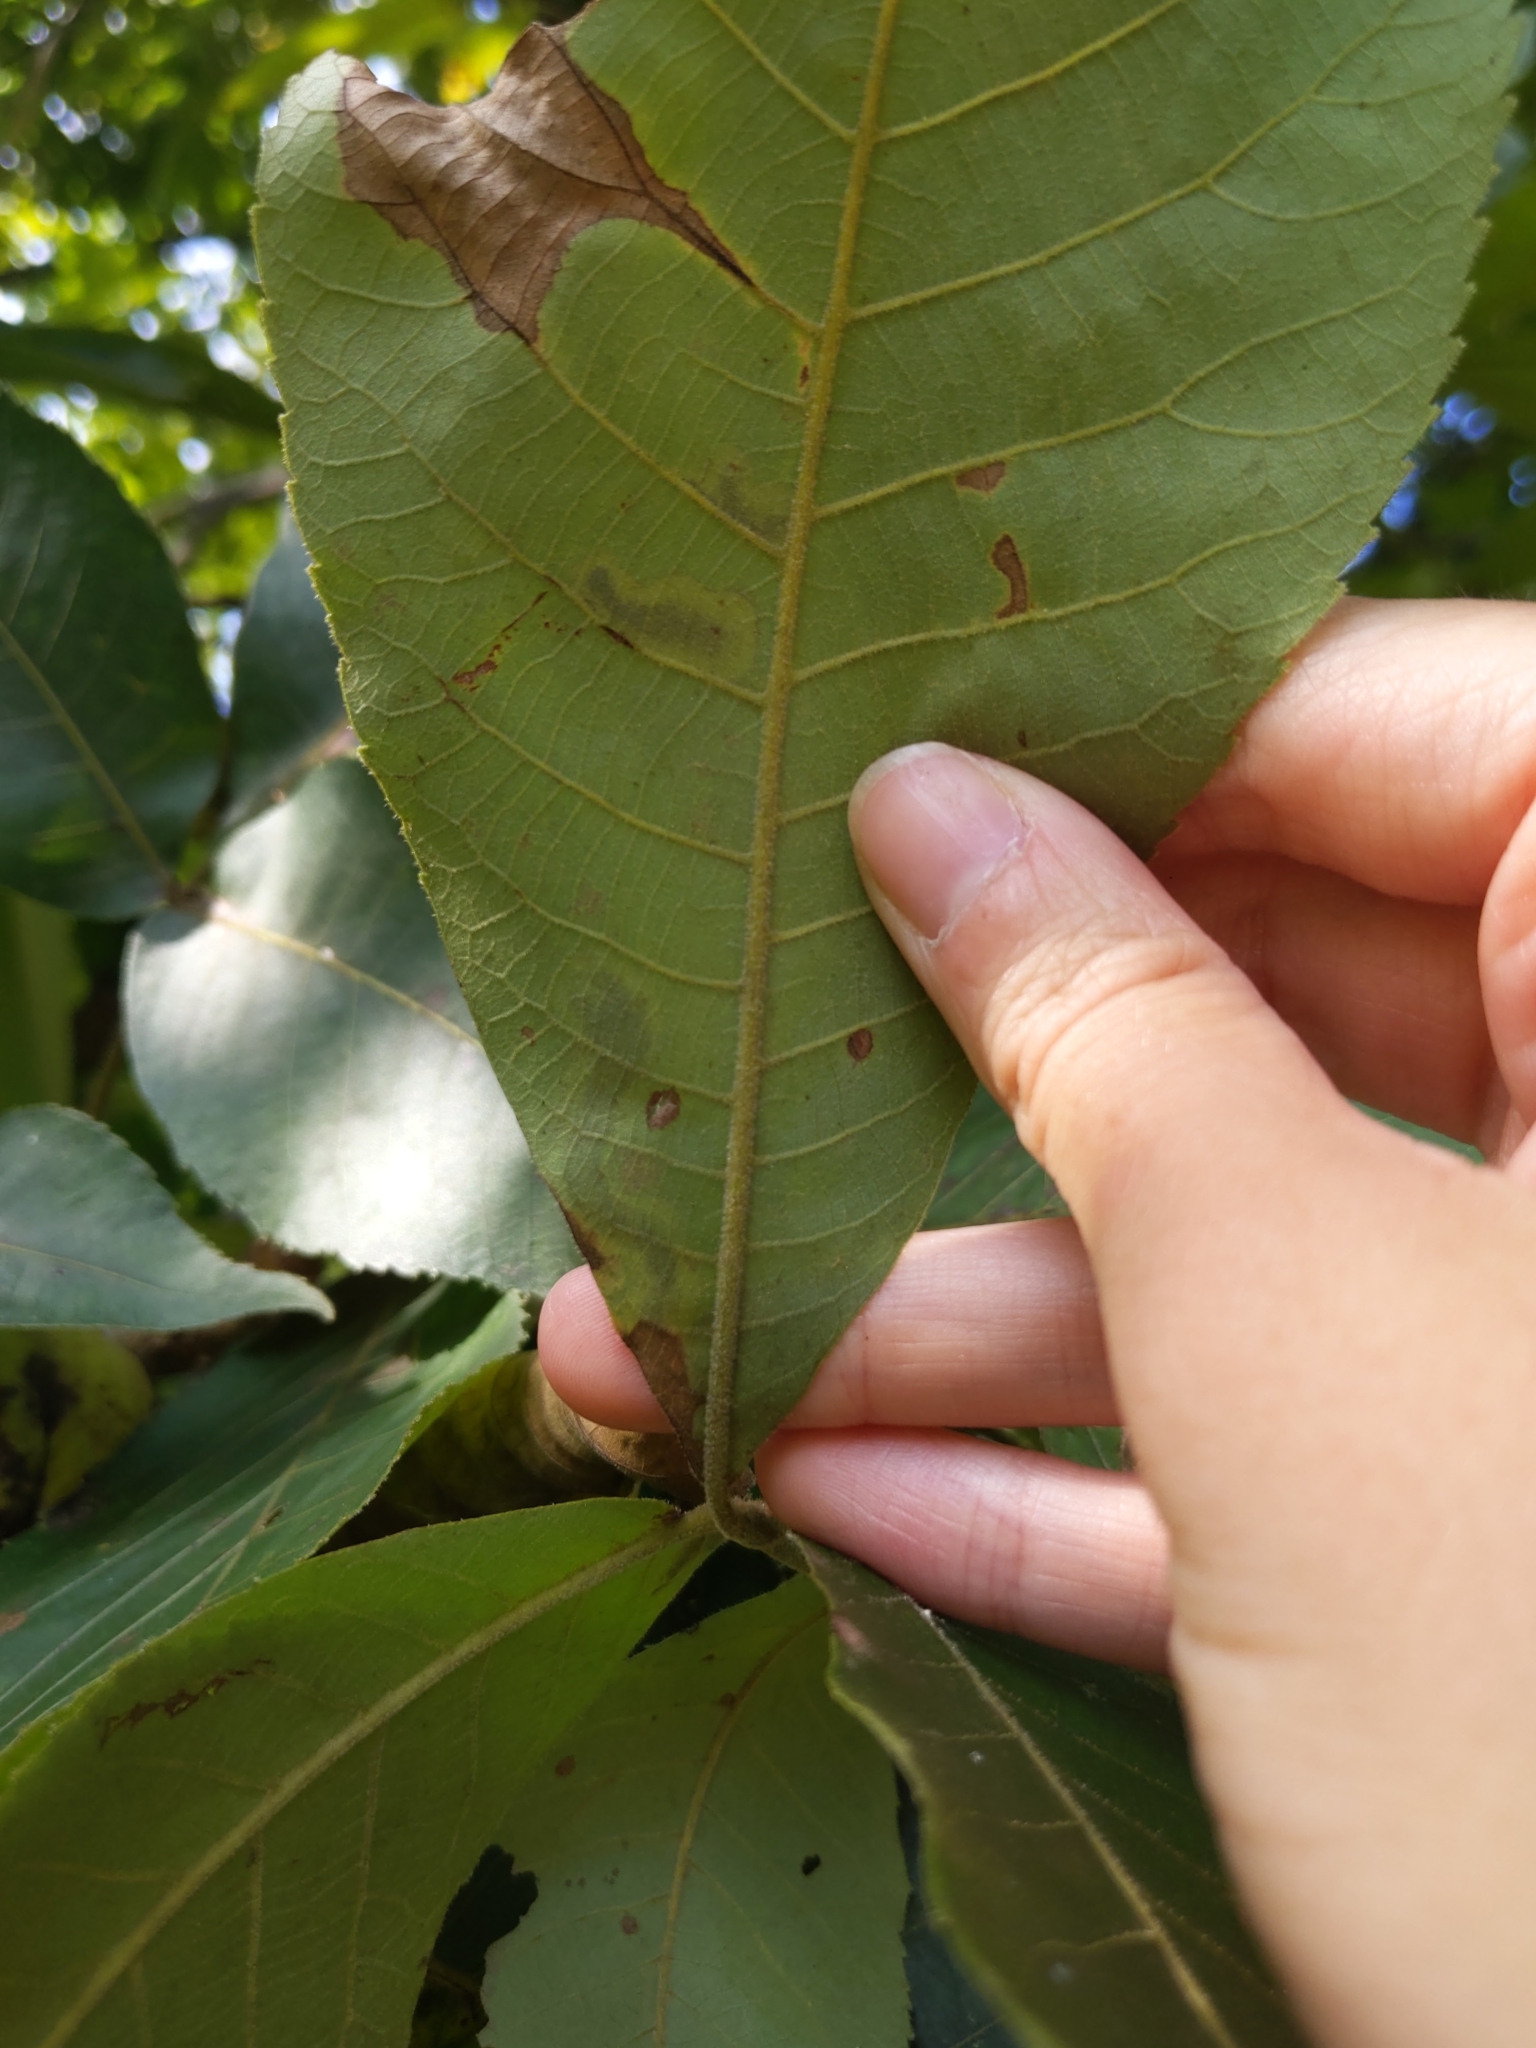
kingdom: Animalia
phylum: Arthropoda
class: Insecta
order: Lepidoptera
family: Gracillariidae
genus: Cameraria
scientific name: Cameraria caryaefoliella
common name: Pecan leafminer moth
